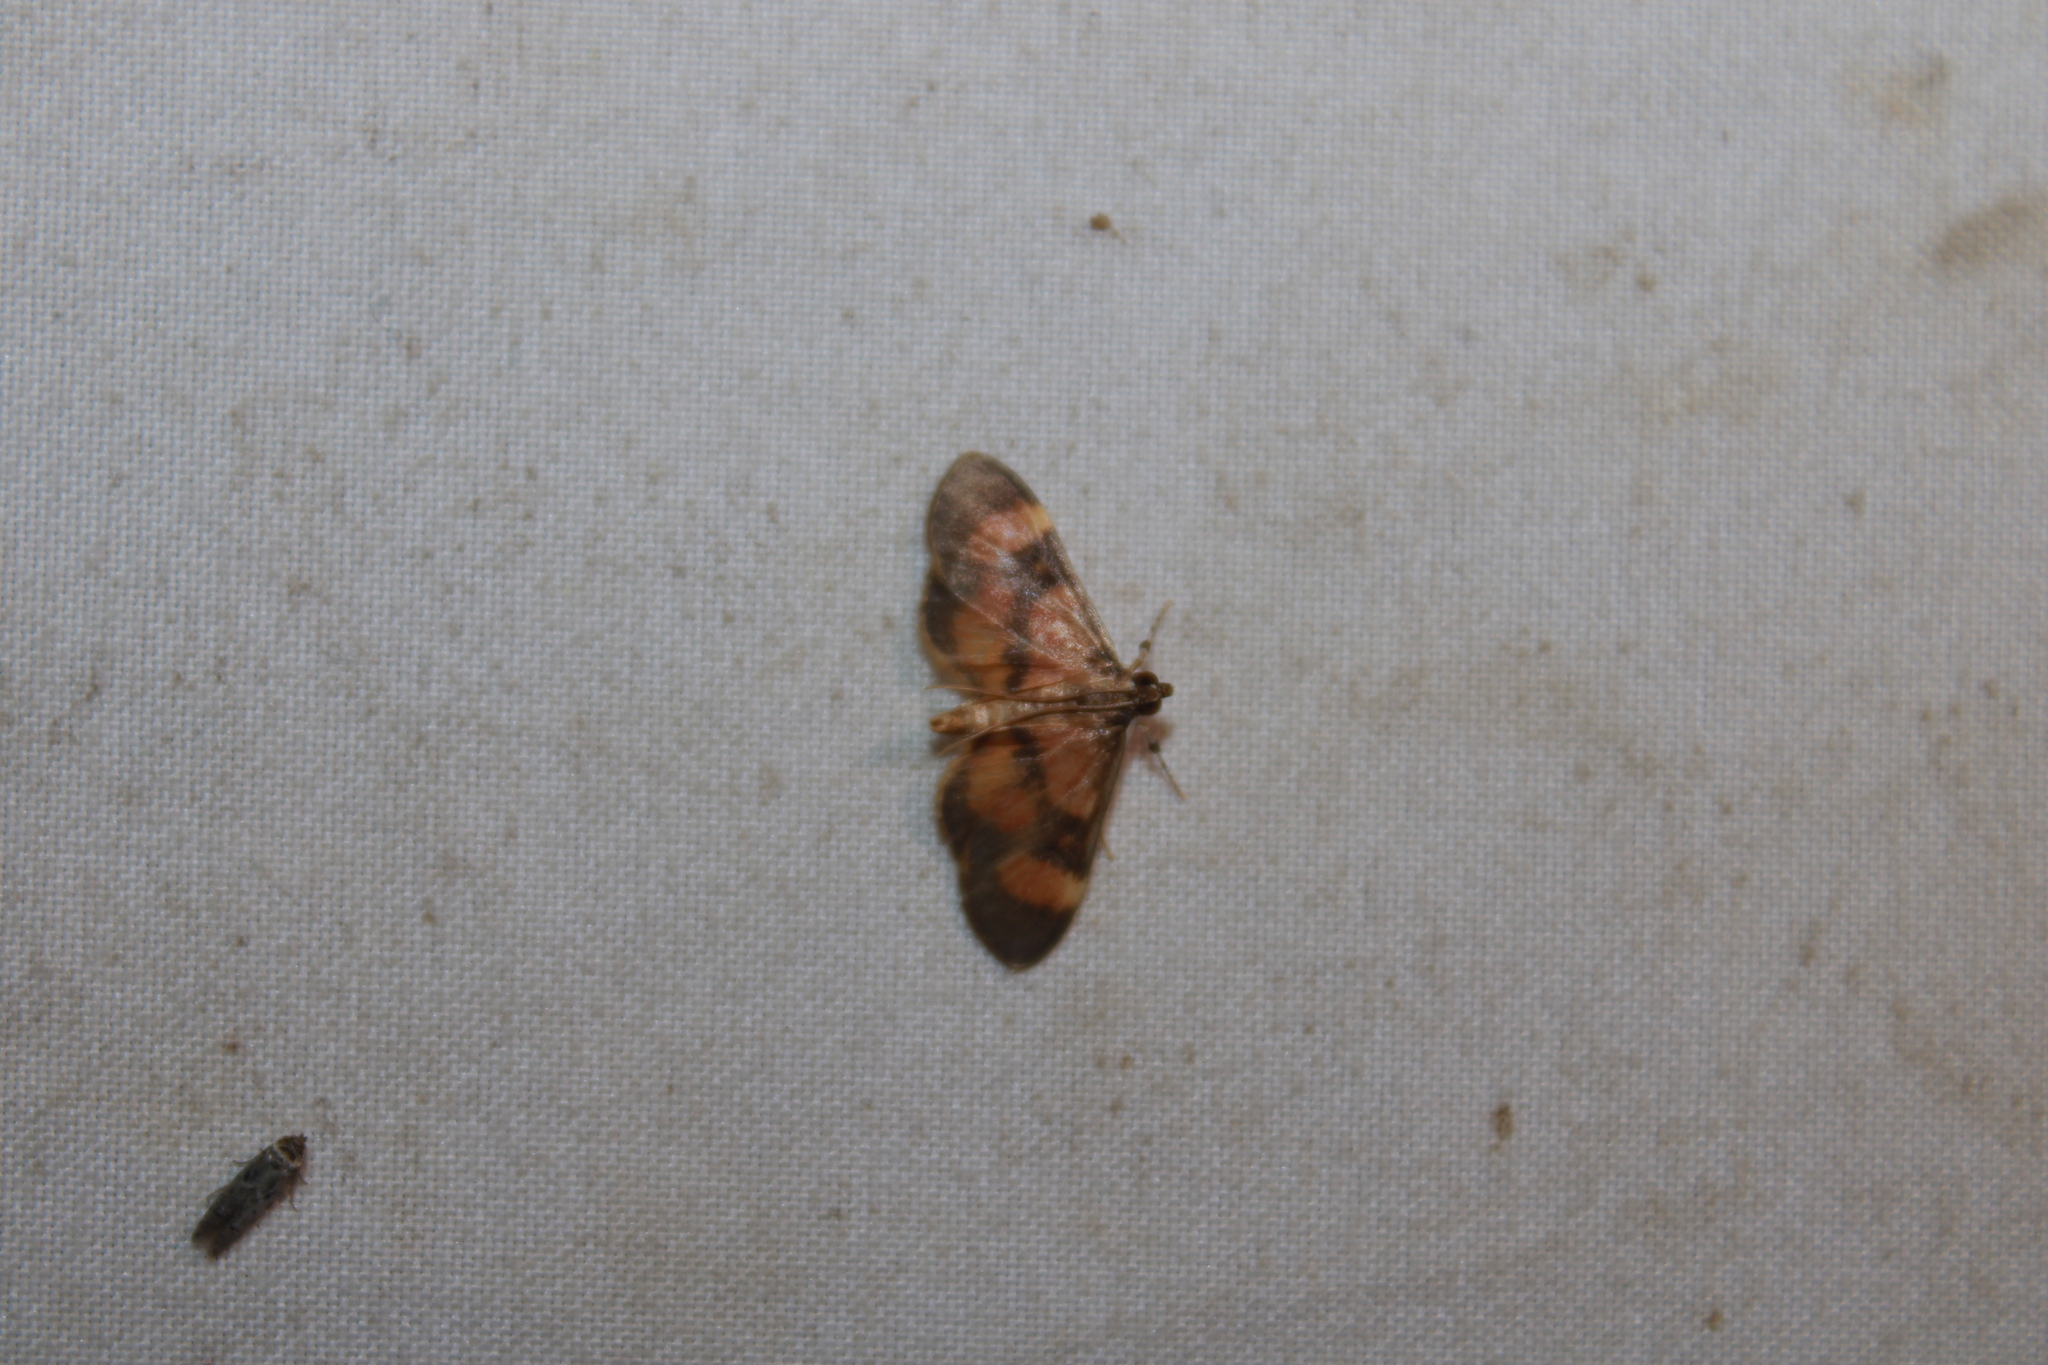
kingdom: Animalia
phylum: Arthropoda
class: Insecta
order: Lepidoptera
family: Crambidae
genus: Lygropia
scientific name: Lygropia fusalis
